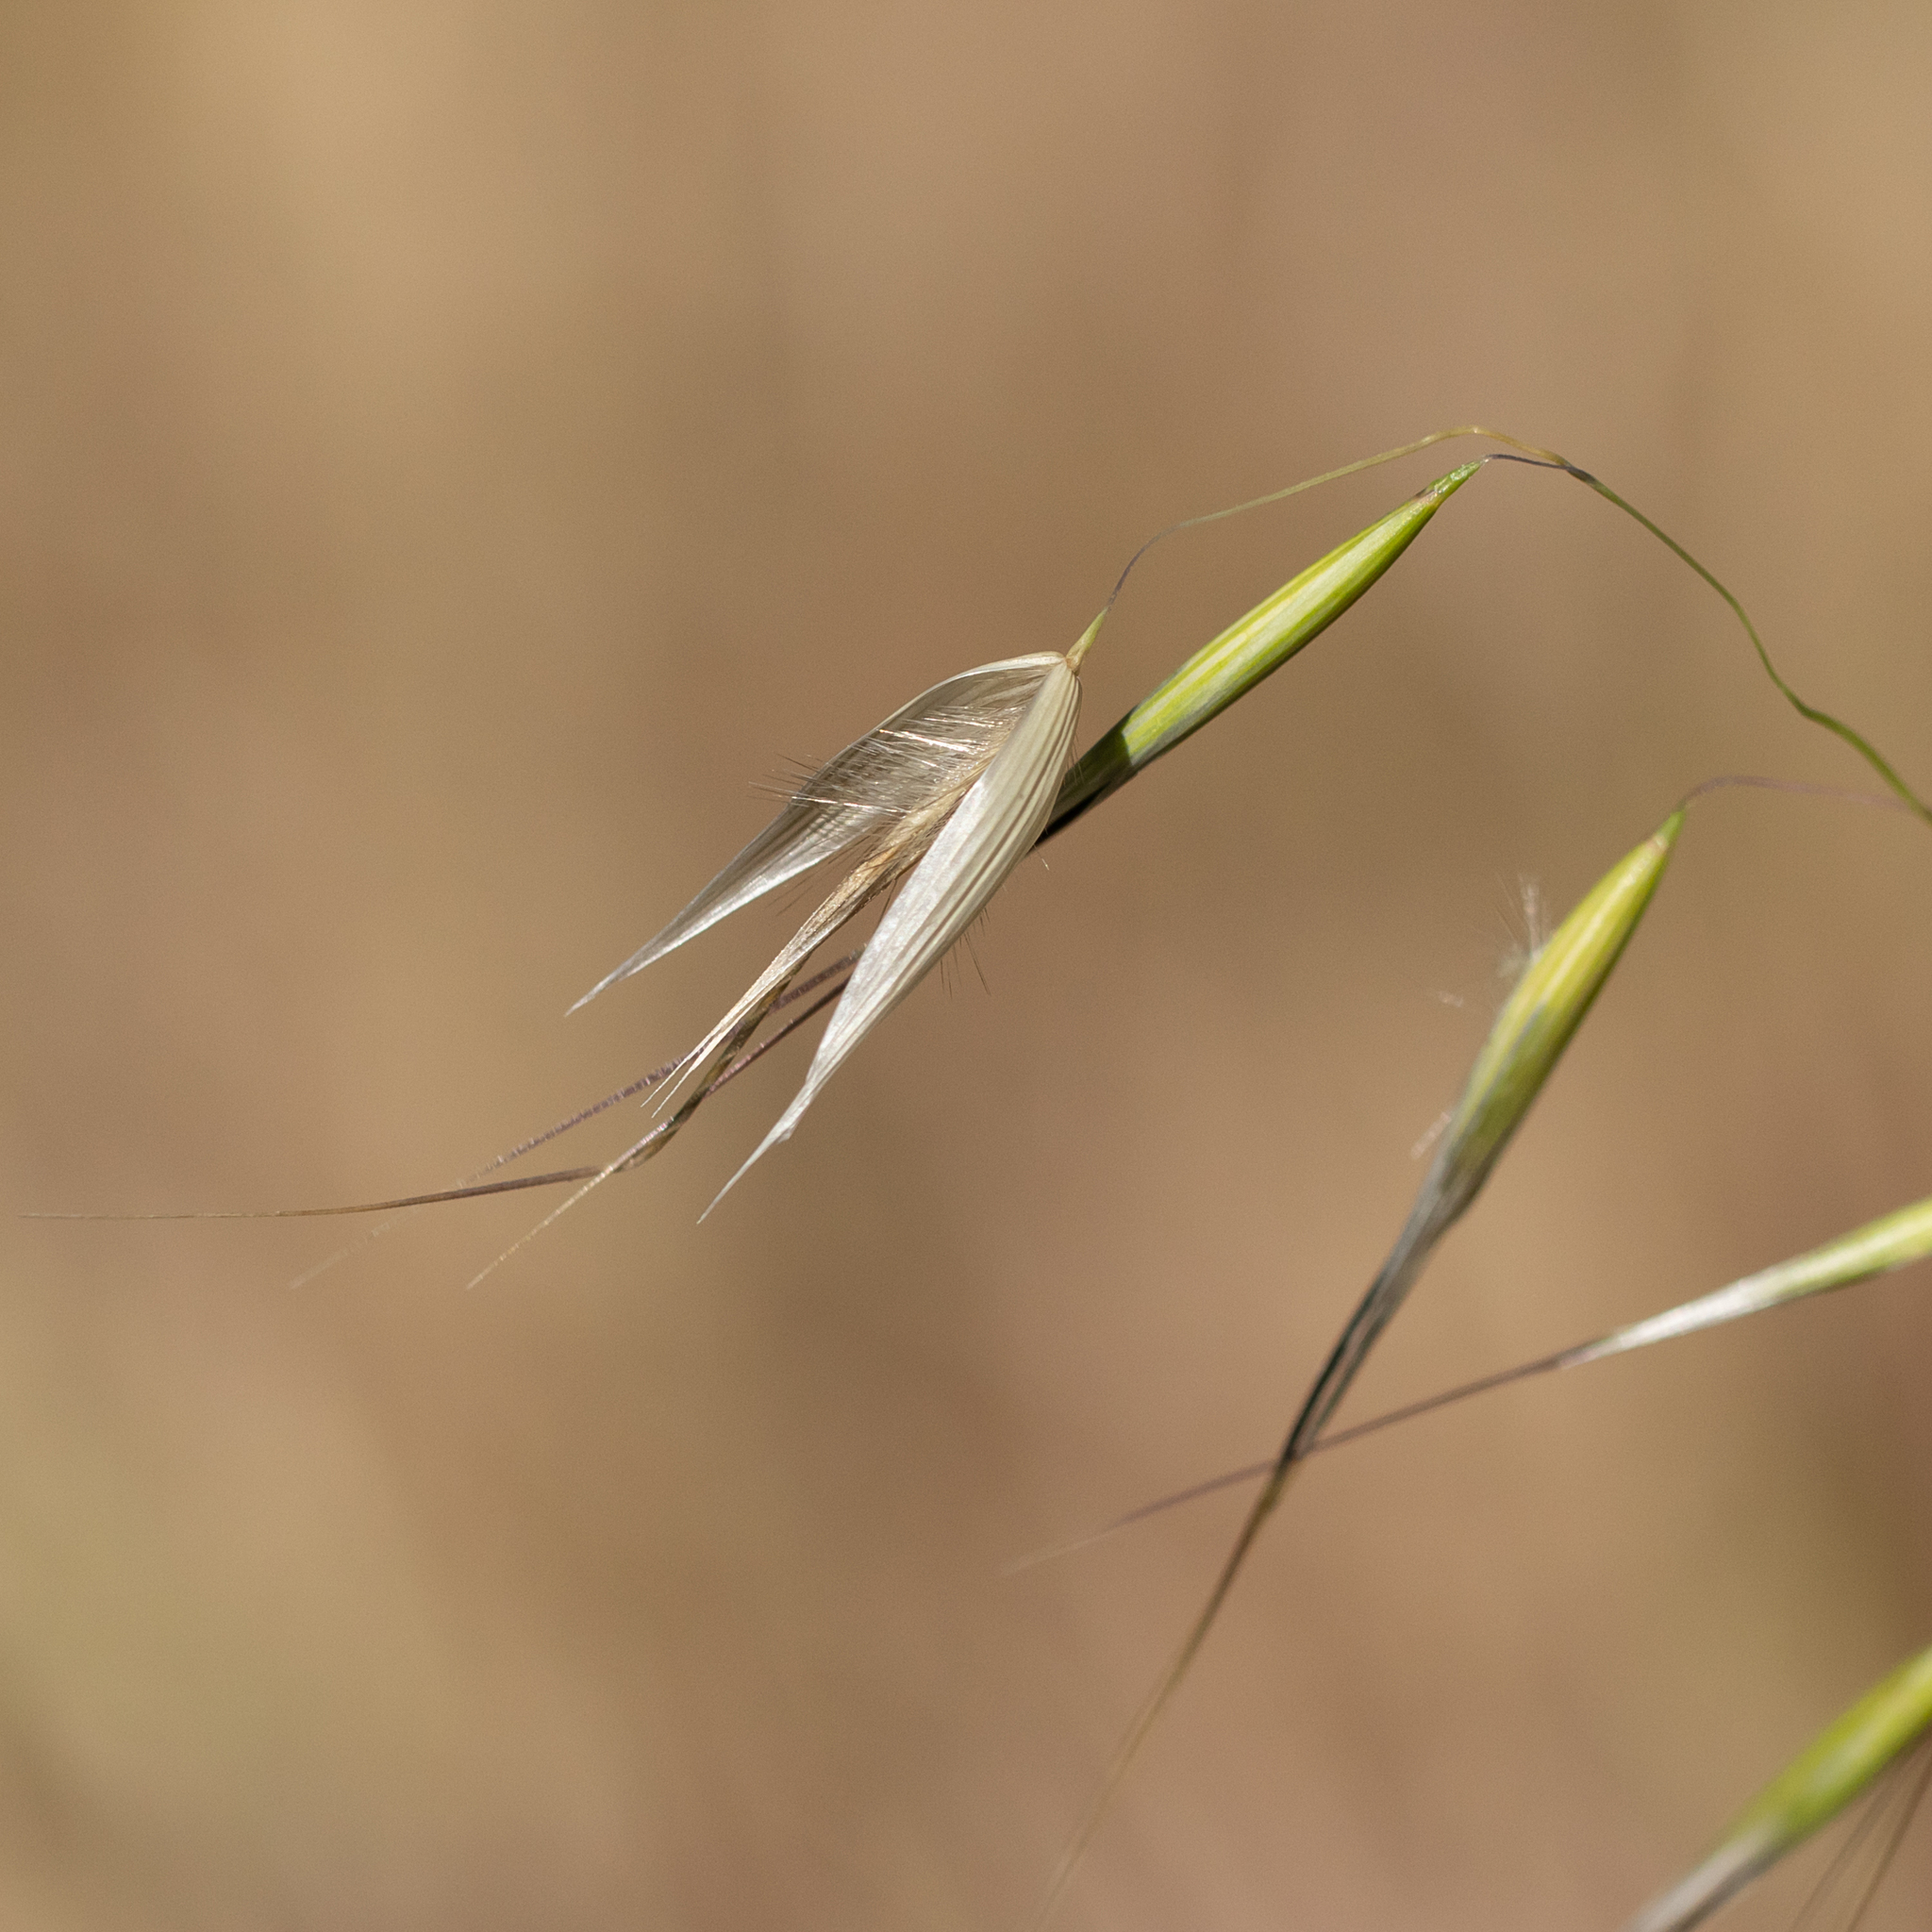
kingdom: Plantae
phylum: Tracheophyta
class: Liliopsida
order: Poales
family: Poaceae
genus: Avena
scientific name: Avena barbata
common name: Slender oat
